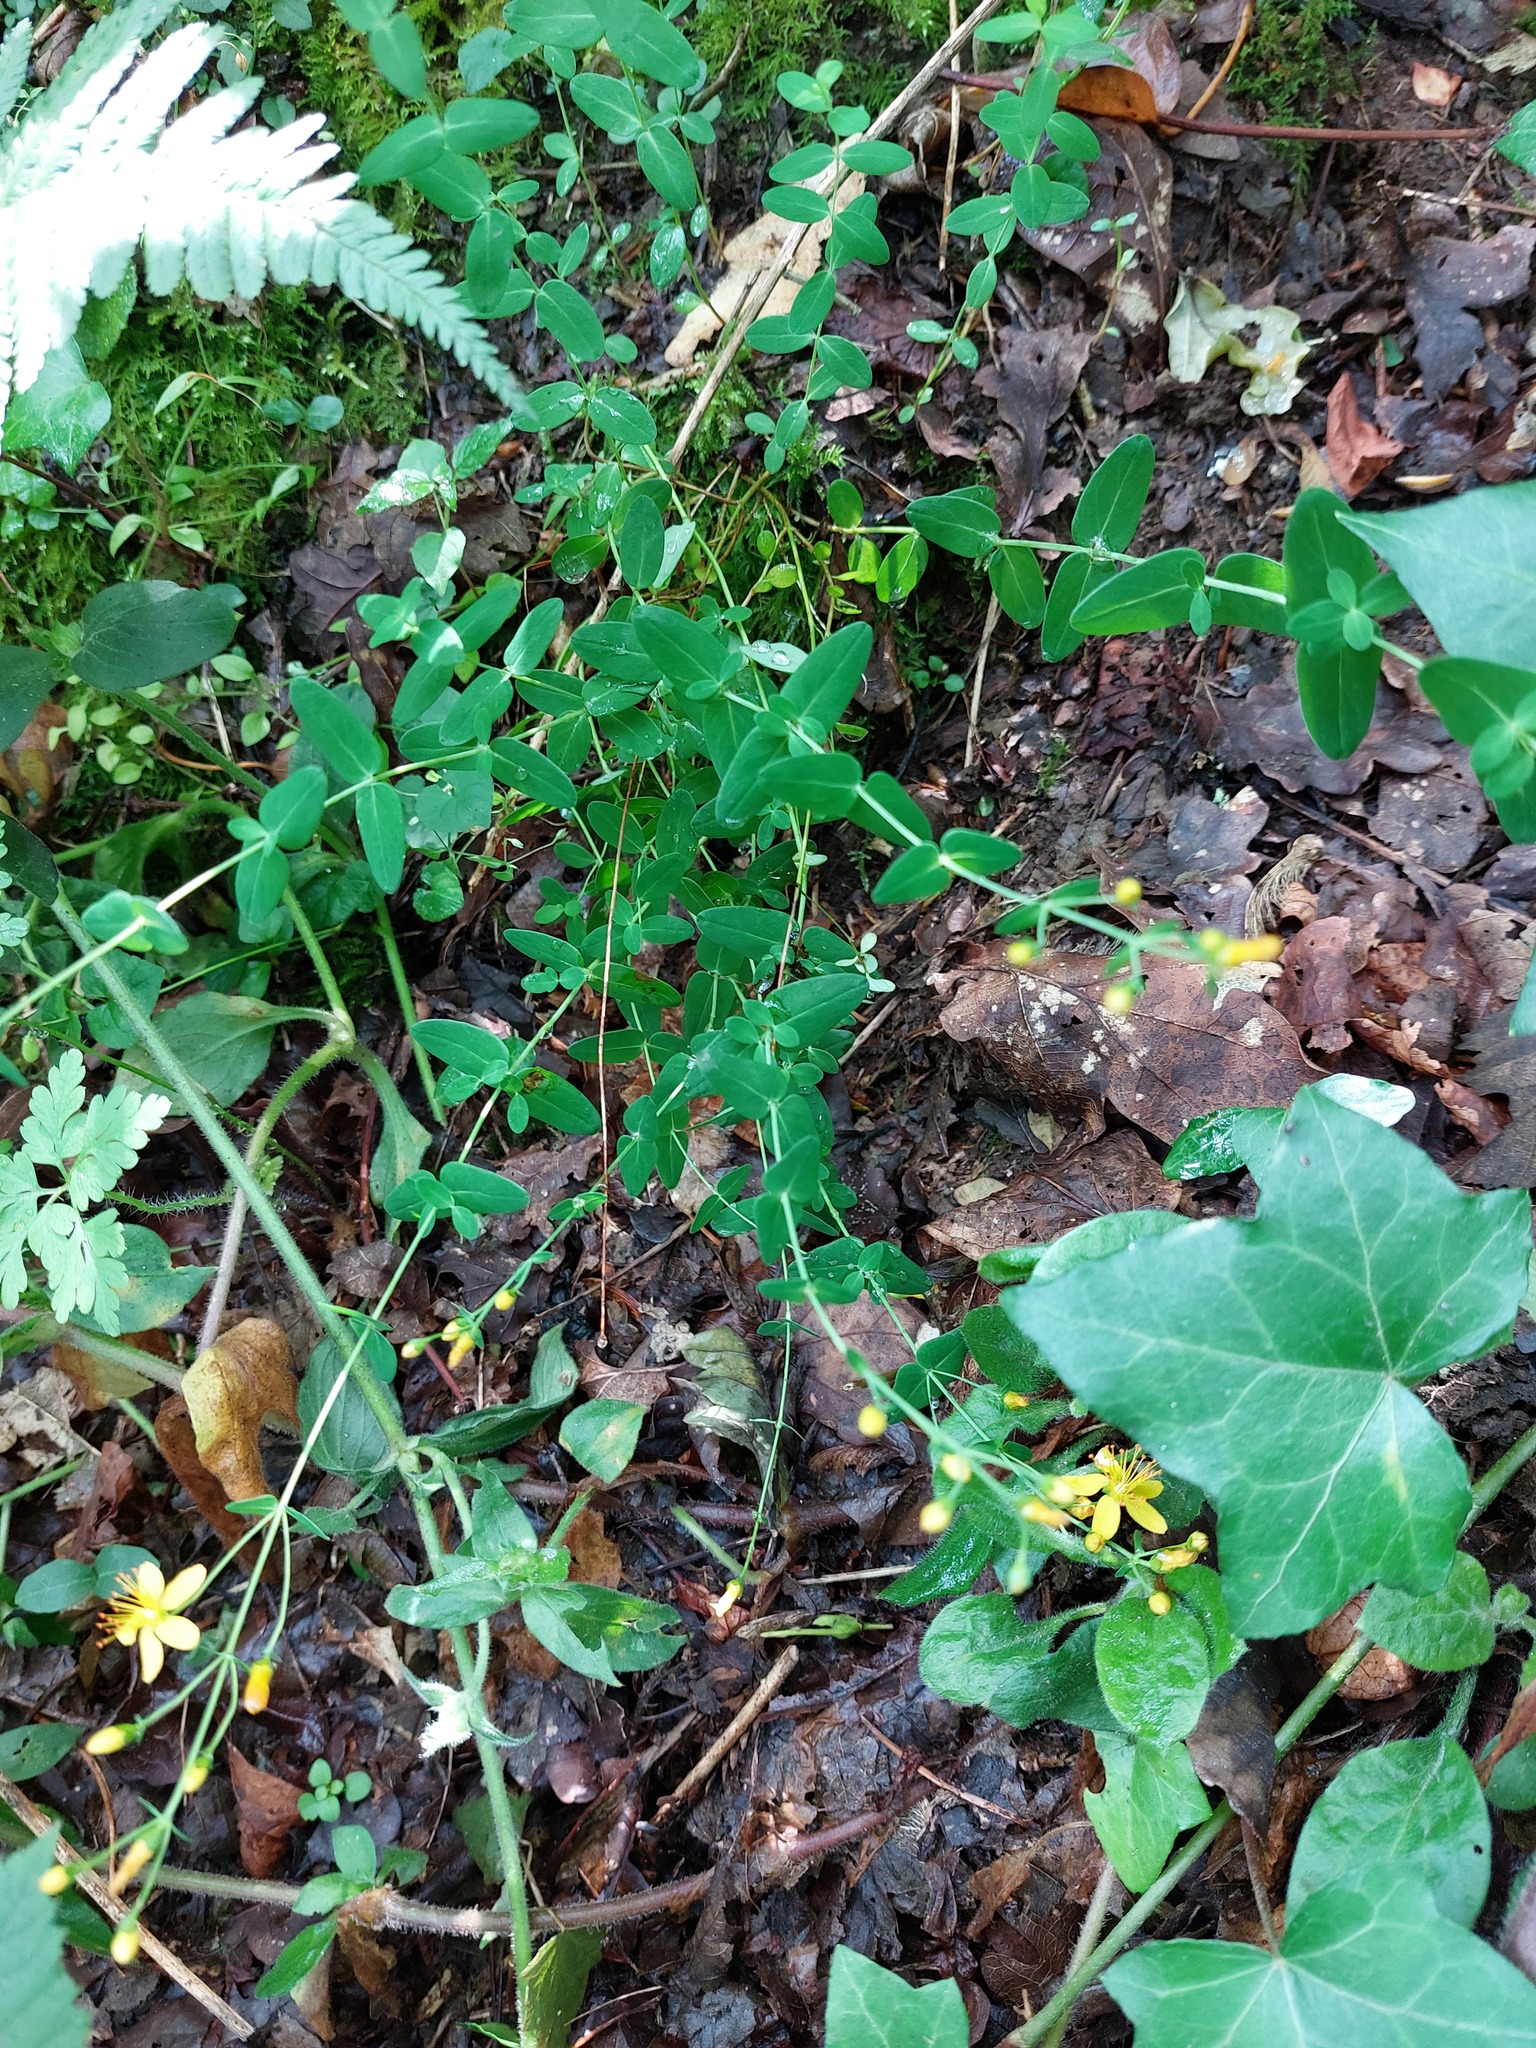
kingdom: Plantae
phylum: Tracheophyta
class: Magnoliopsida
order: Malpighiales
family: Hypericaceae
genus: Hypericum
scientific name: Hypericum pulchrum
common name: Slender st. john's-wort
